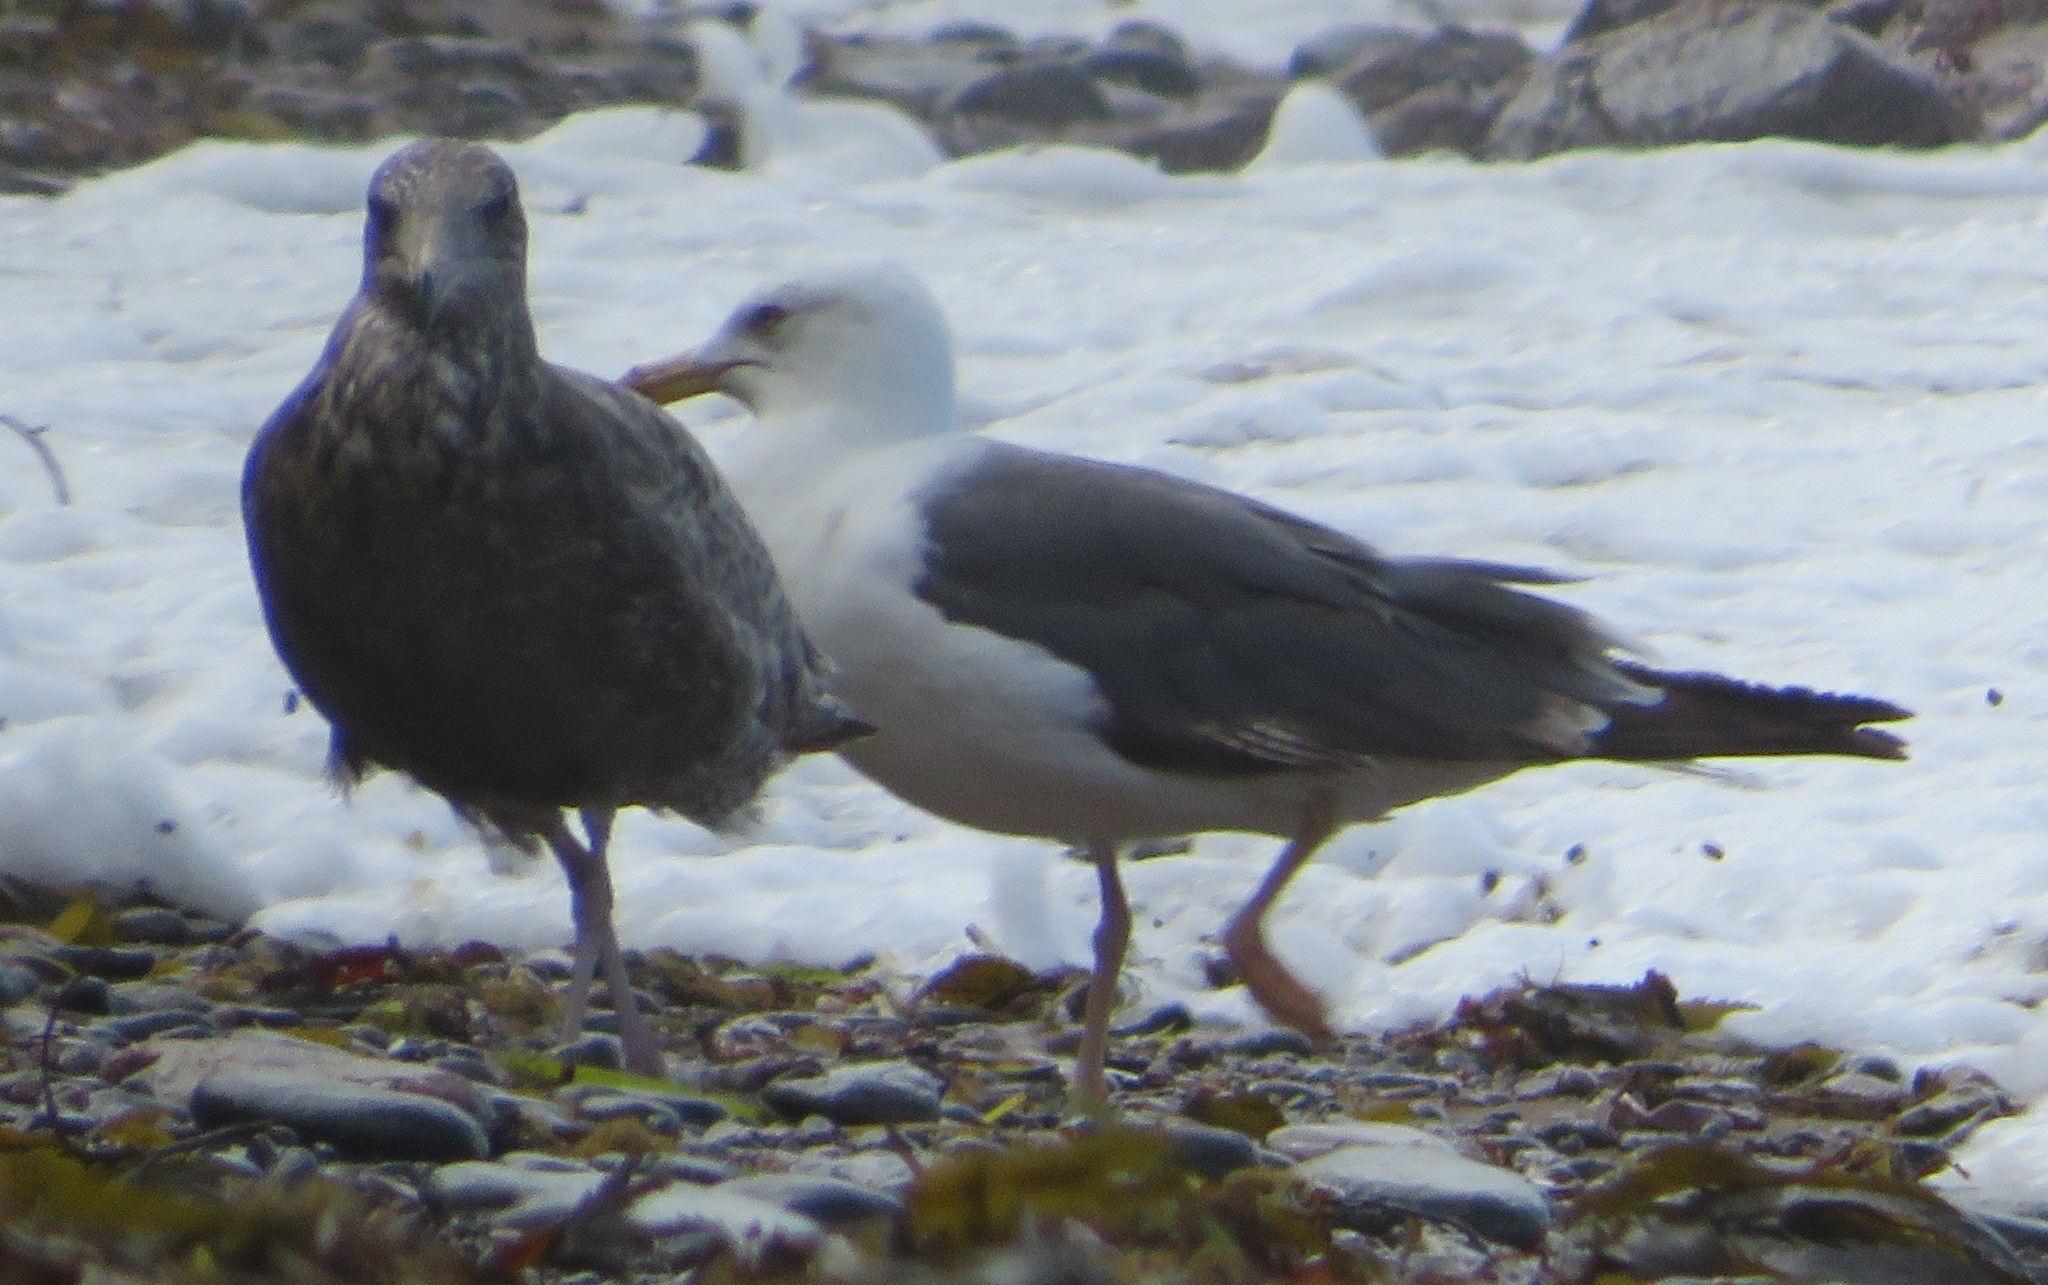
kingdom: Animalia
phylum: Chordata
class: Aves
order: Charadriiformes
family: Laridae
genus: Larus
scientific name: Larus marinus
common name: Great black-backed gull
